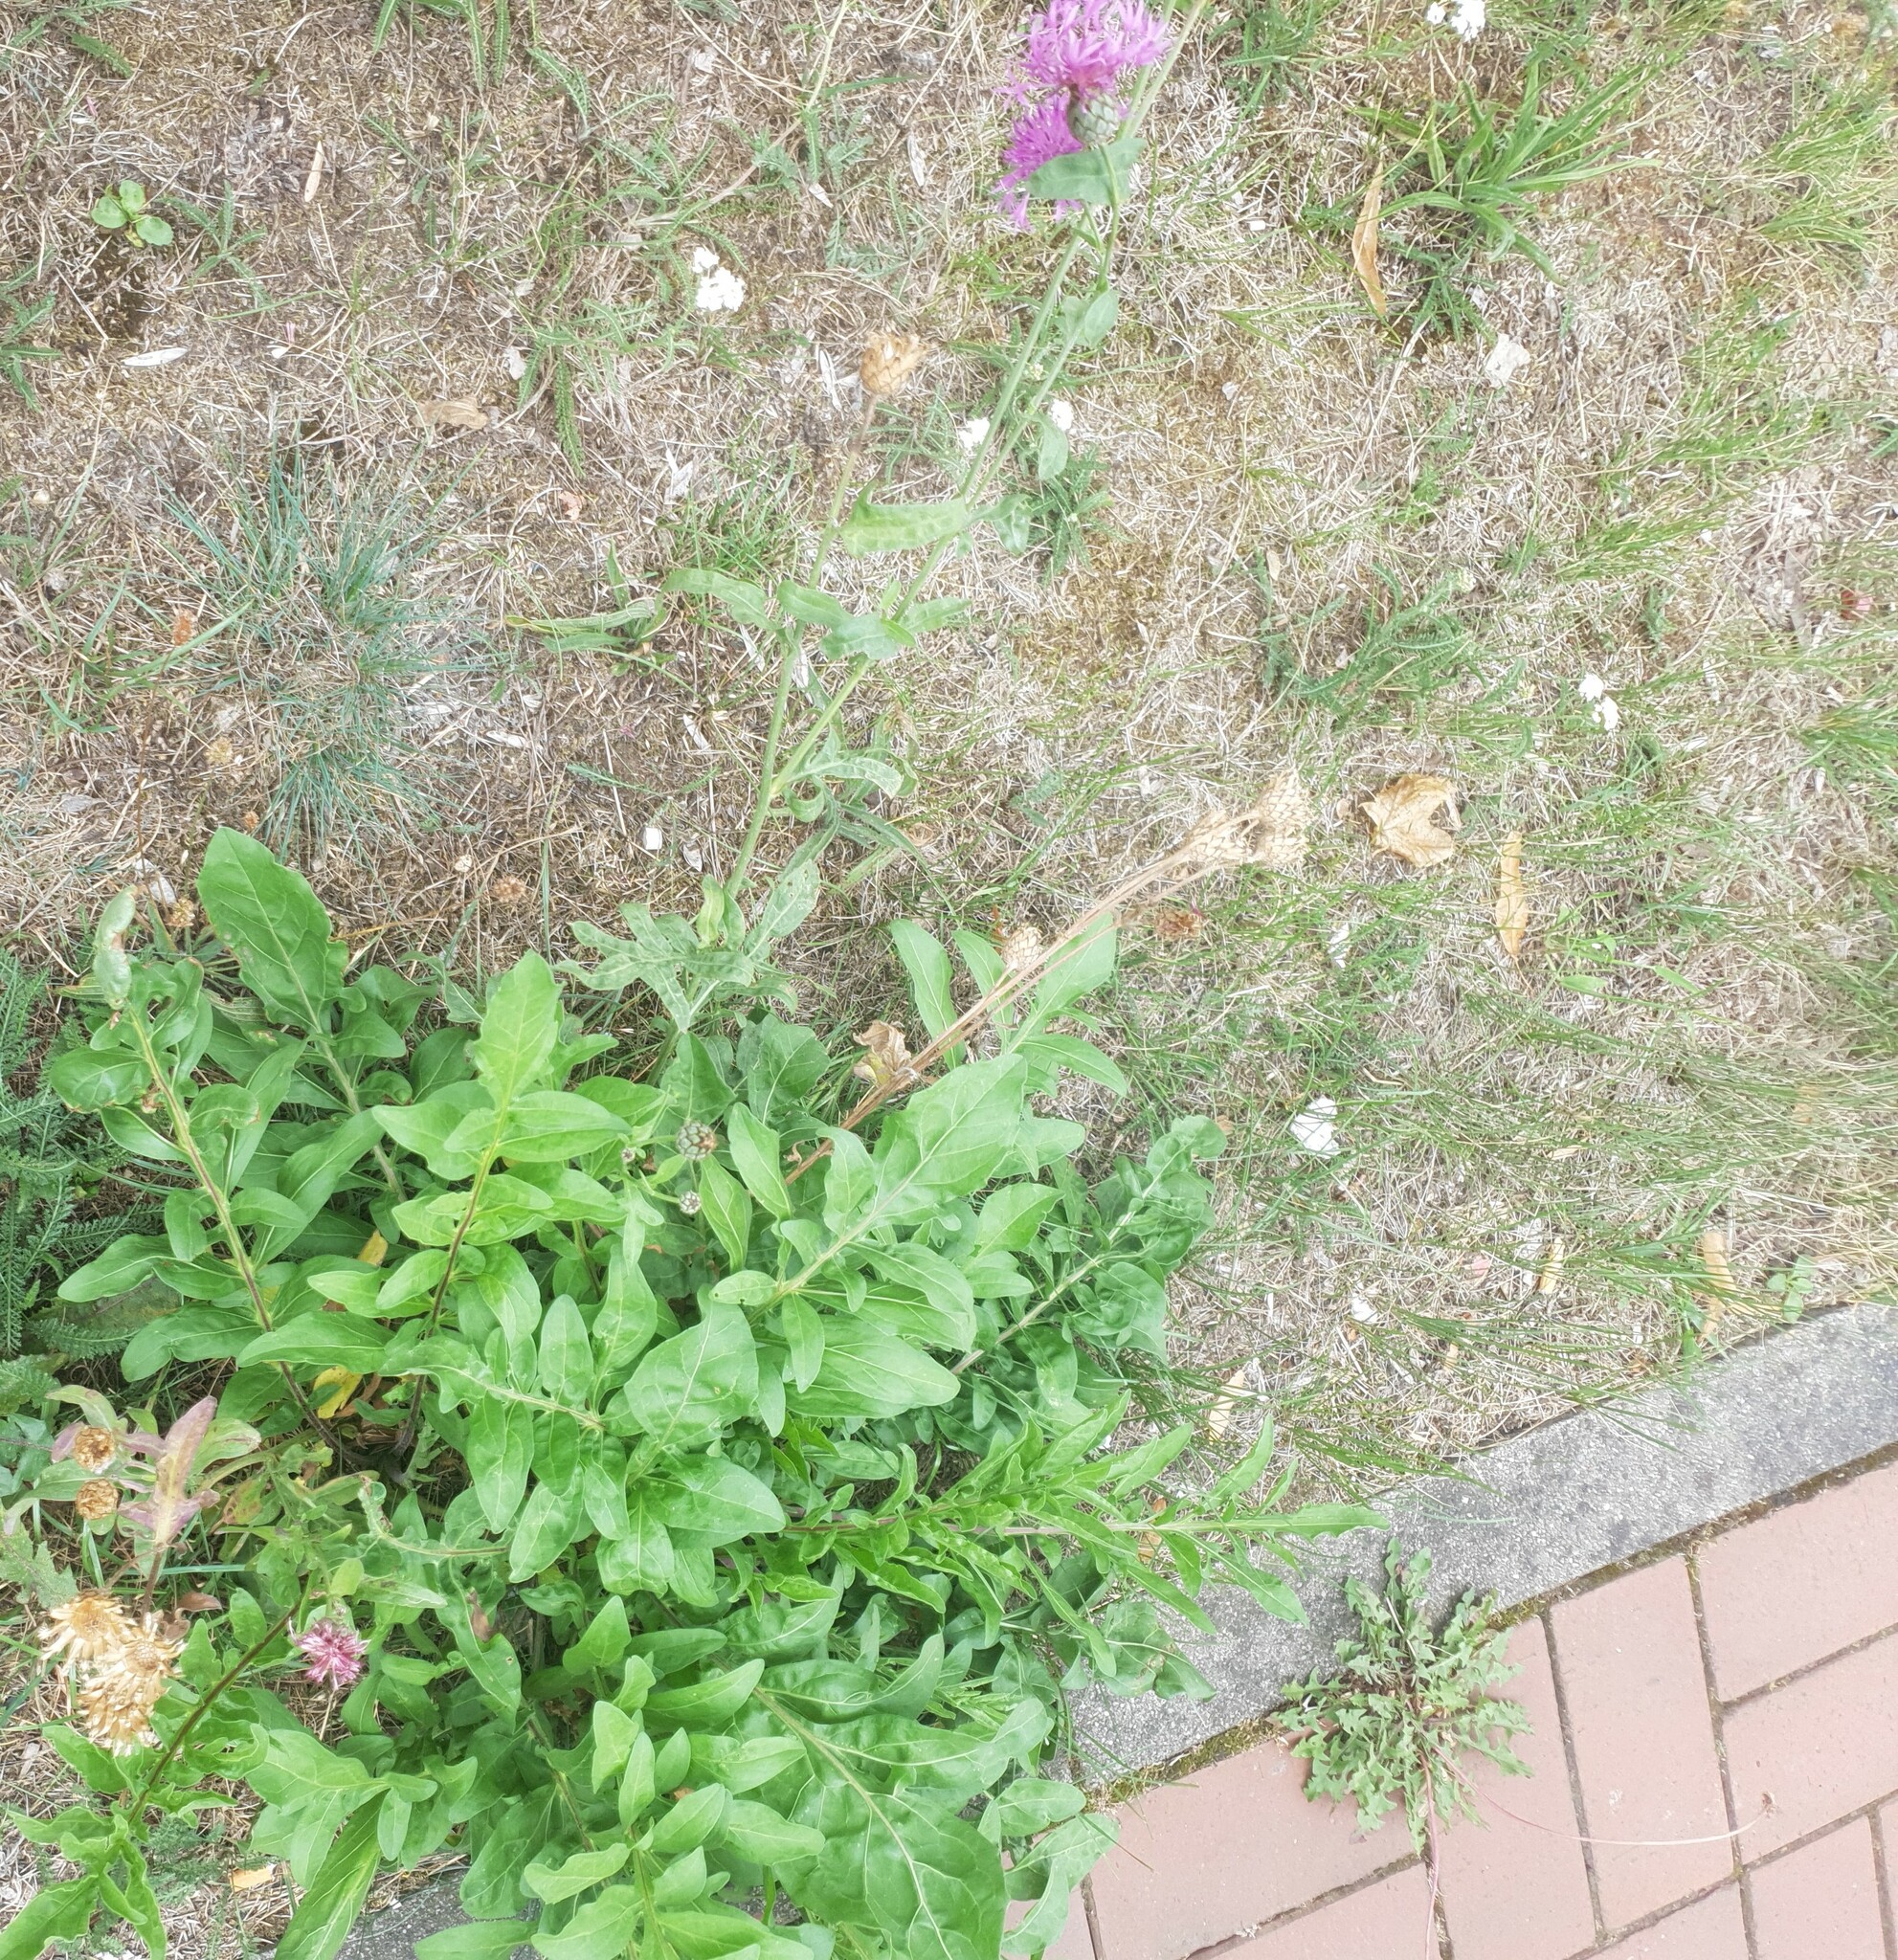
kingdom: Plantae
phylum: Tracheophyta
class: Magnoliopsida
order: Asterales
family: Asteraceae
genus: Centaurea
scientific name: Centaurea scabiosa
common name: Greater knapweed
